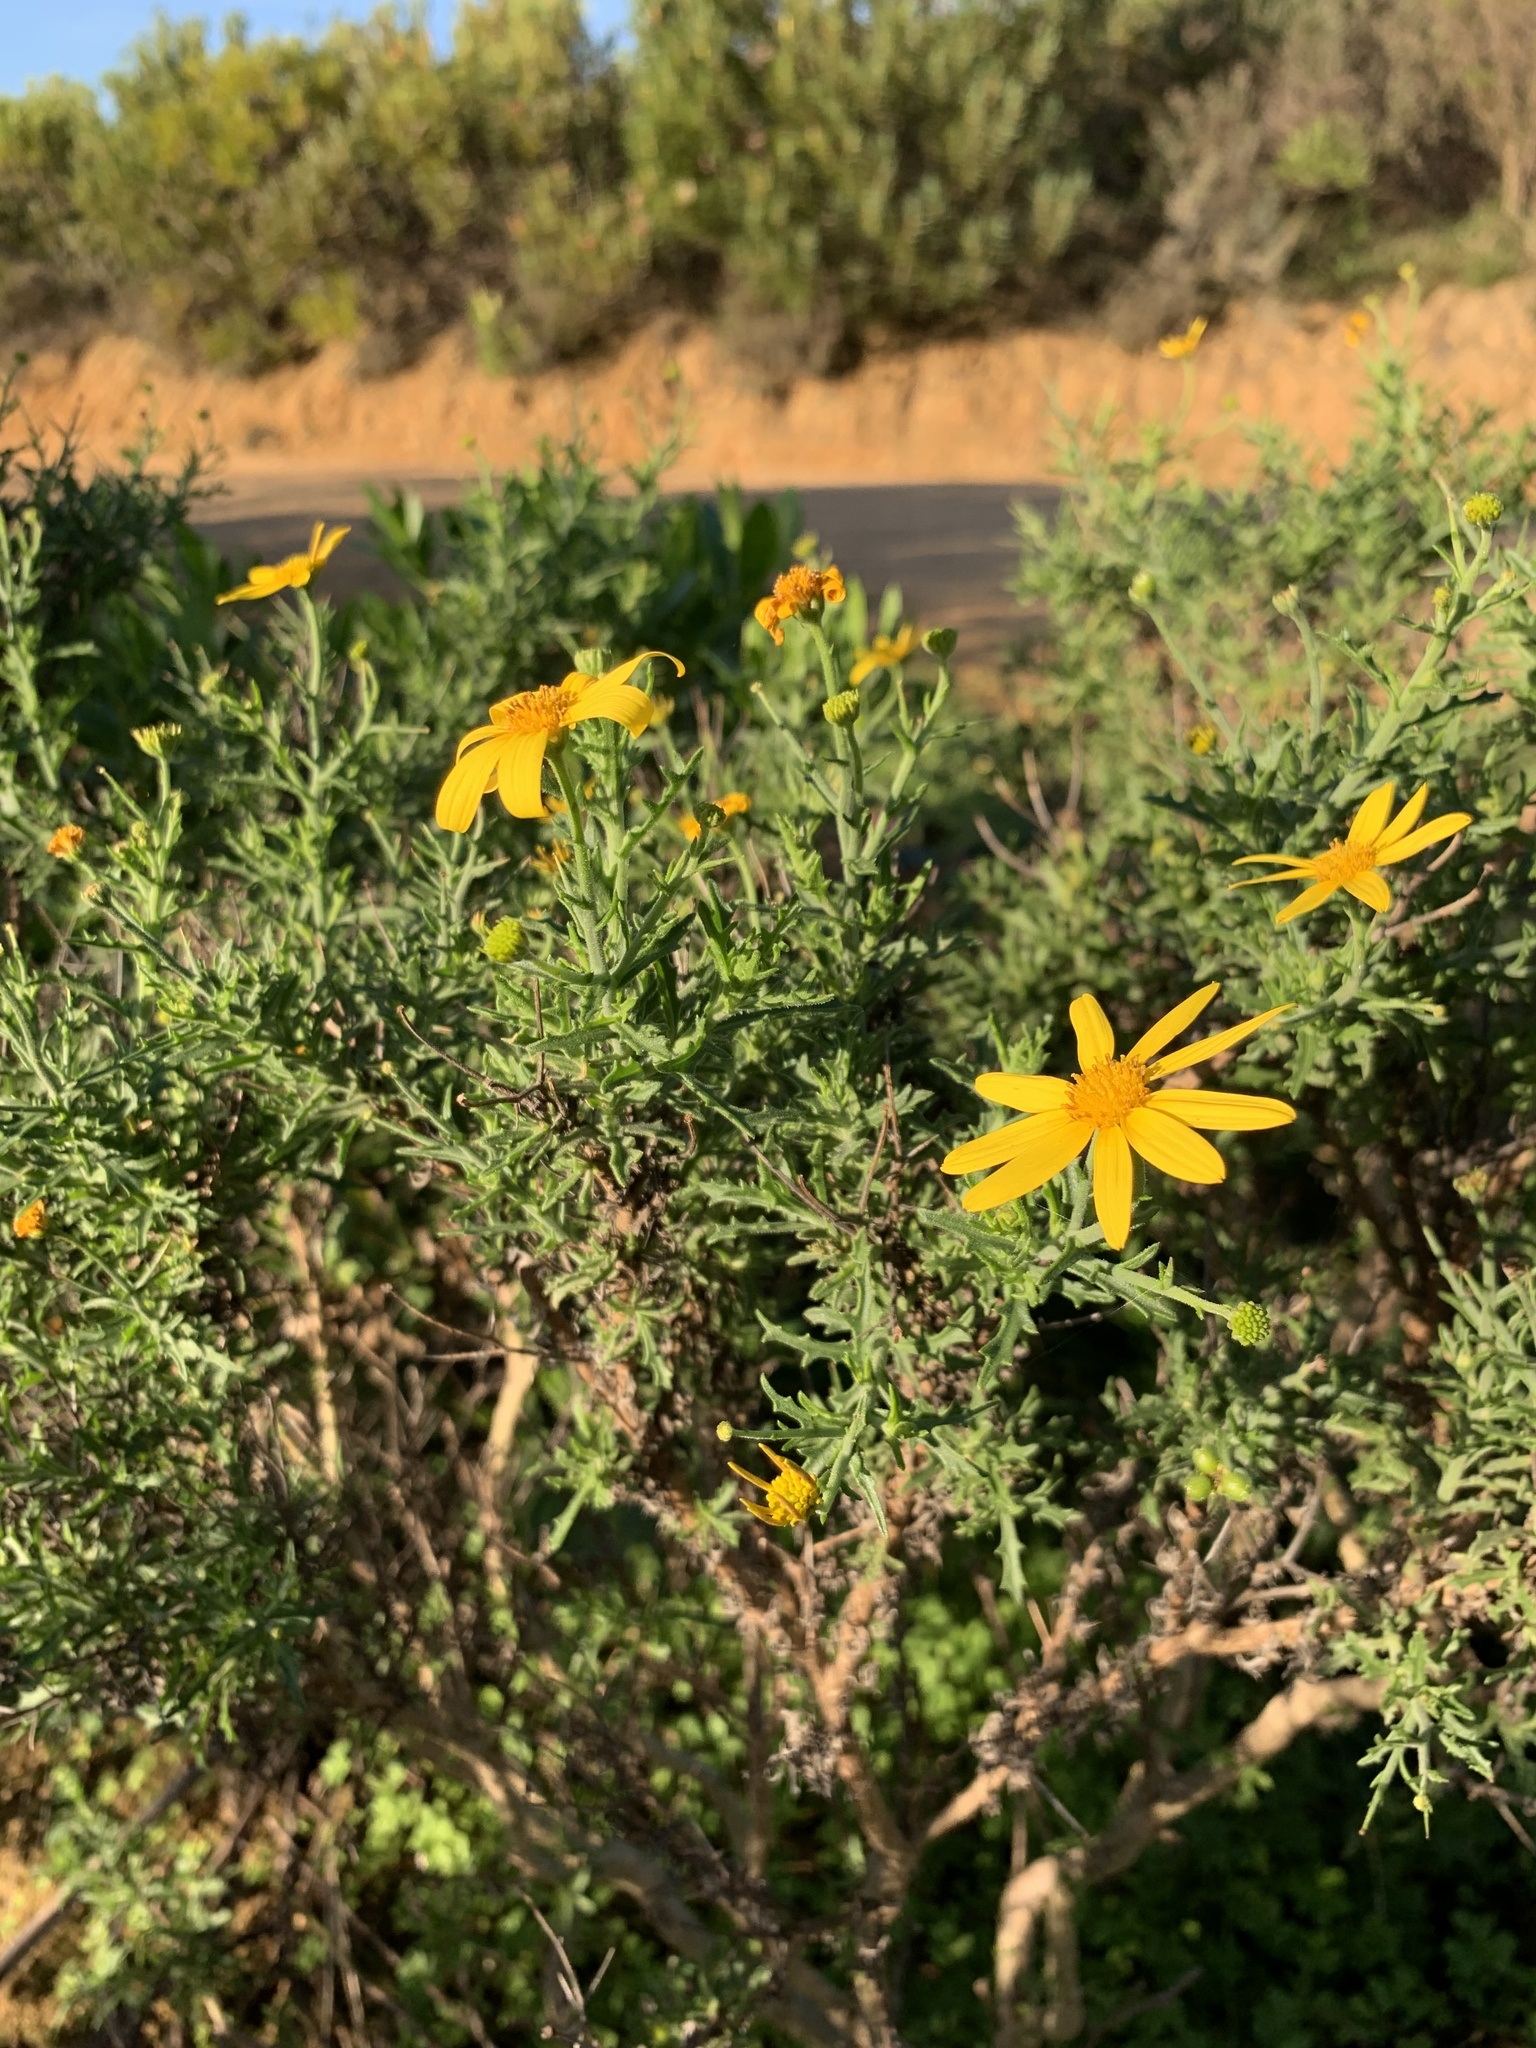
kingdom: Plantae
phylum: Tracheophyta
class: Magnoliopsida
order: Asterales
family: Asteraceae
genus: Osteospermum
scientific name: Osteospermum spinosum
